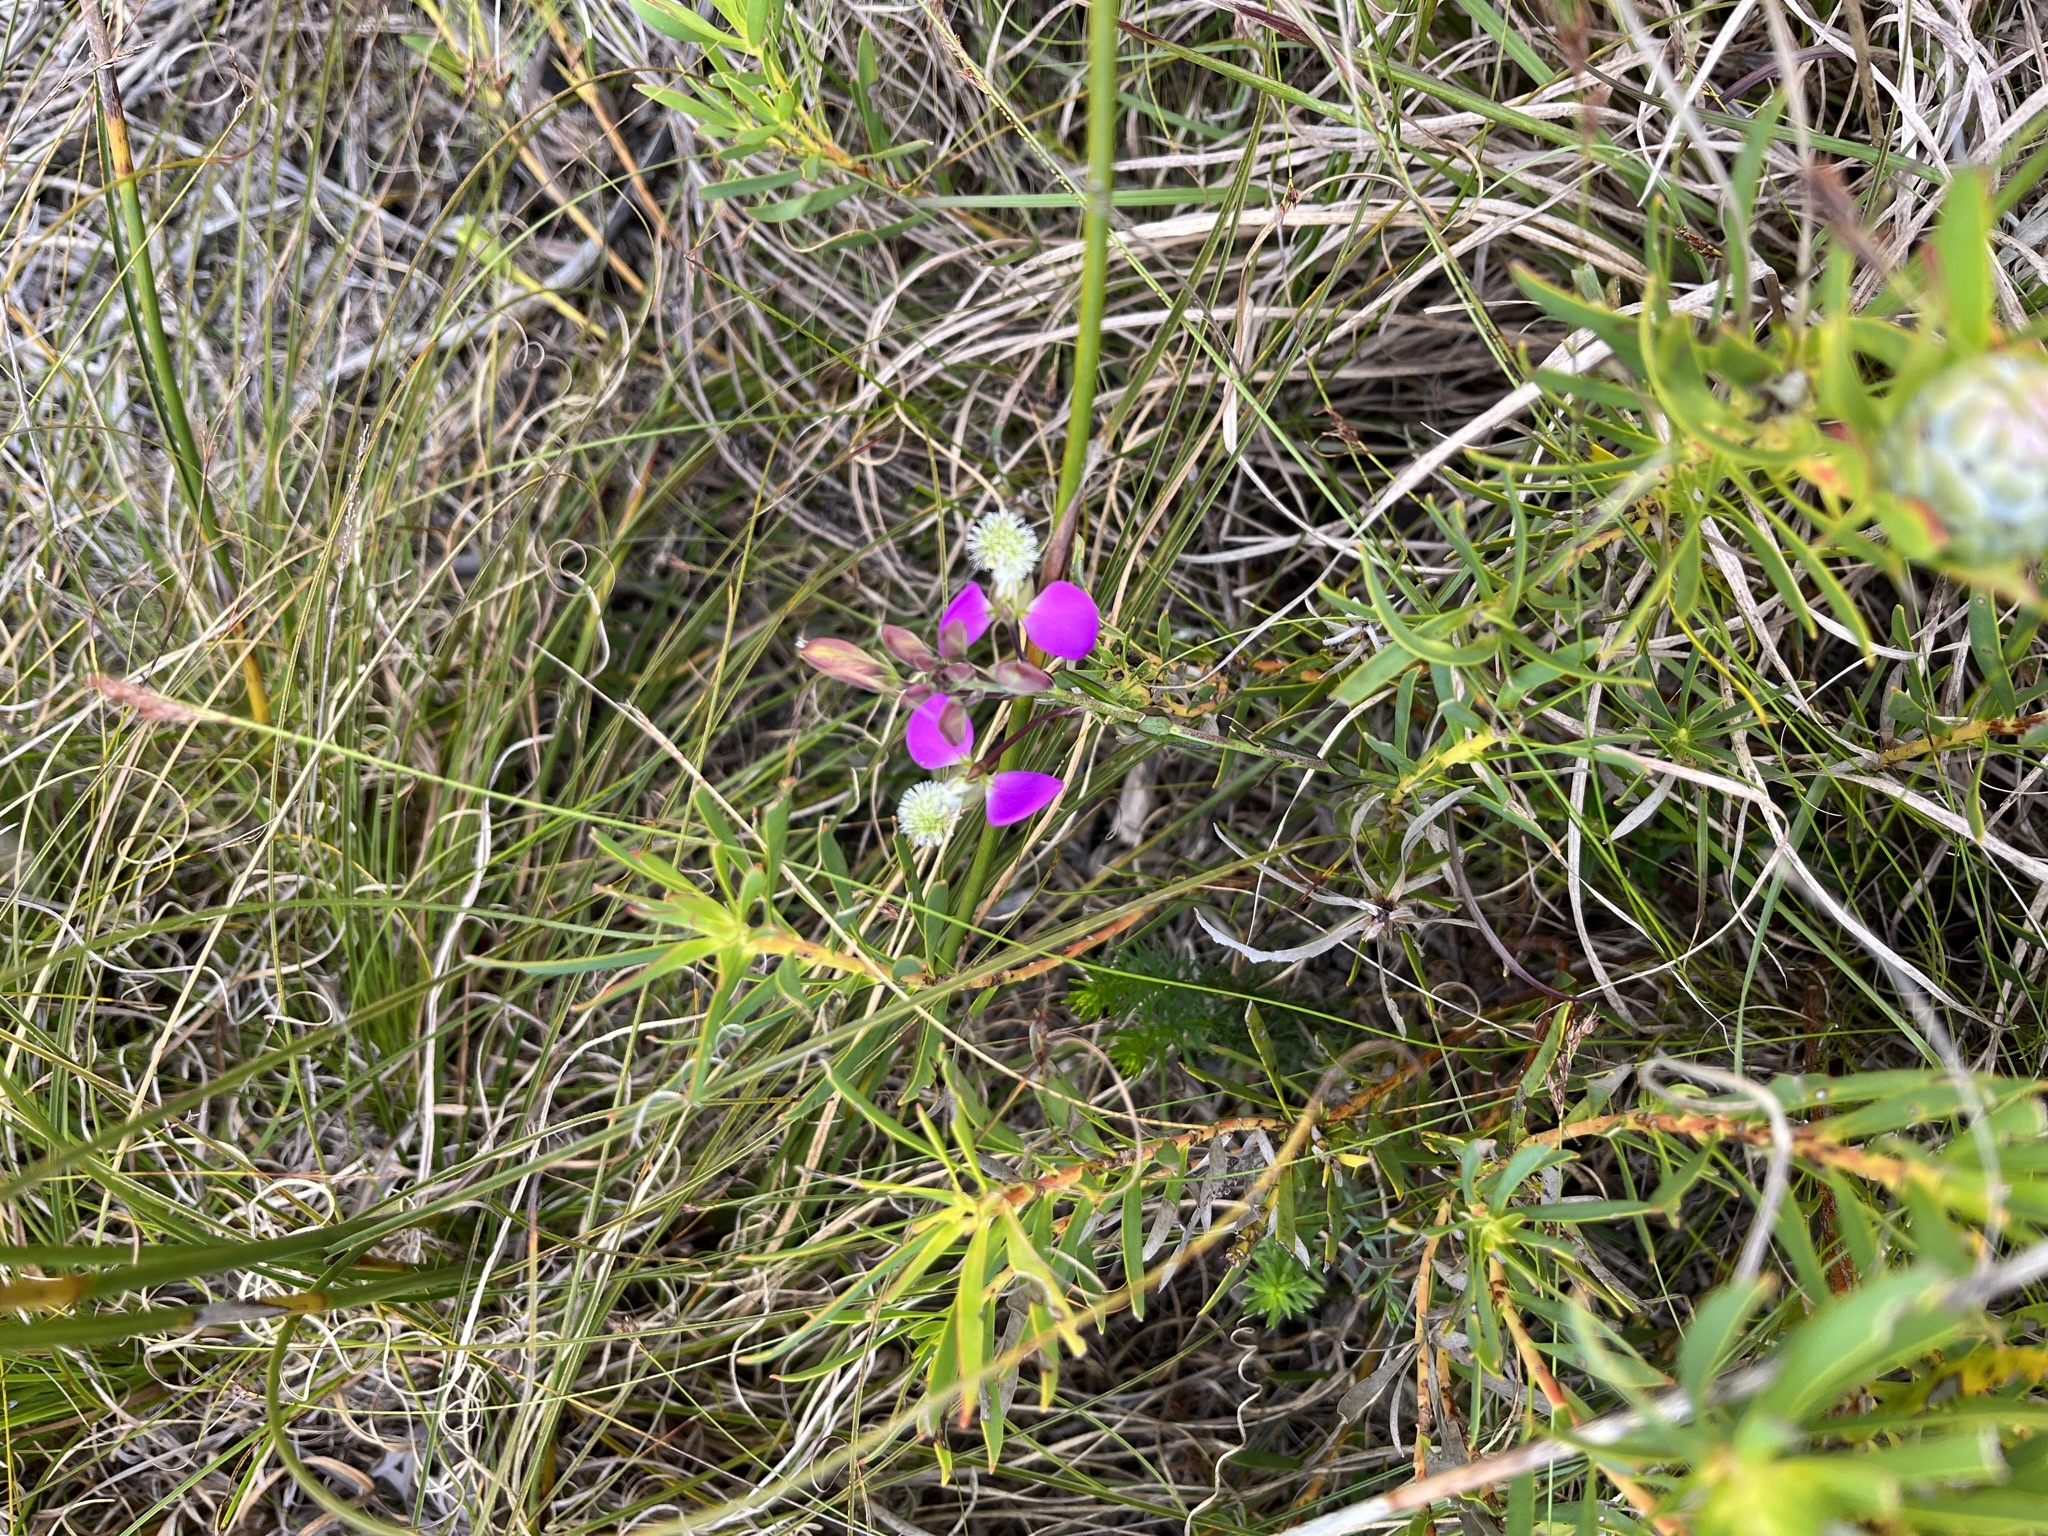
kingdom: Plantae
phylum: Tracheophyta
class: Magnoliopsida
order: Fabales
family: Polygalaceae
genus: Polygala
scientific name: Polygala bracteolata
